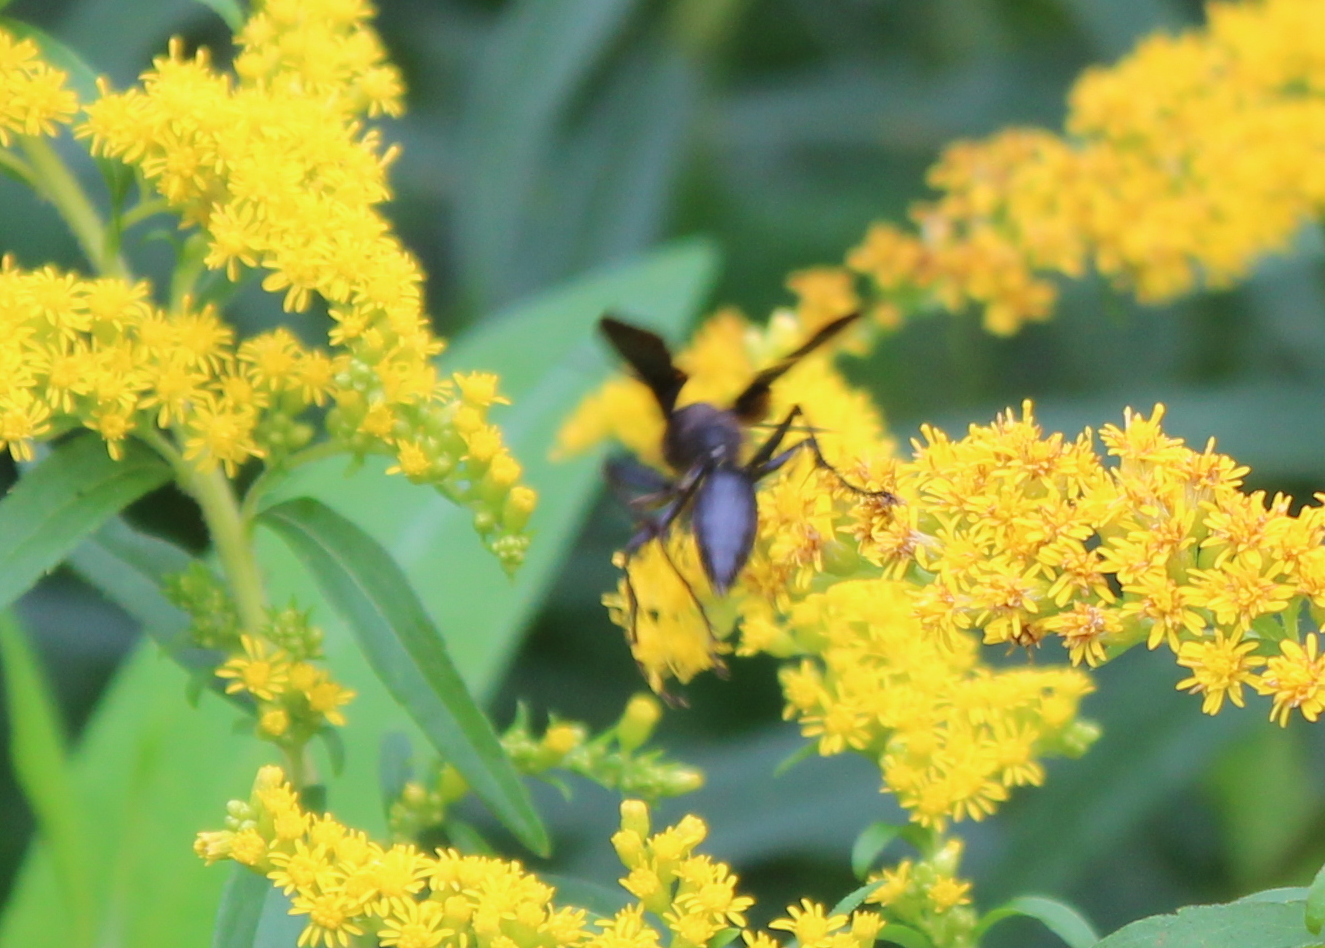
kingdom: Animalia
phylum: Arthropoda
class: Insecta
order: Hymenoptera
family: Sphecidae
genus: Sphex
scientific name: Sphex pensylvanicus
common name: Great black digger wasp
